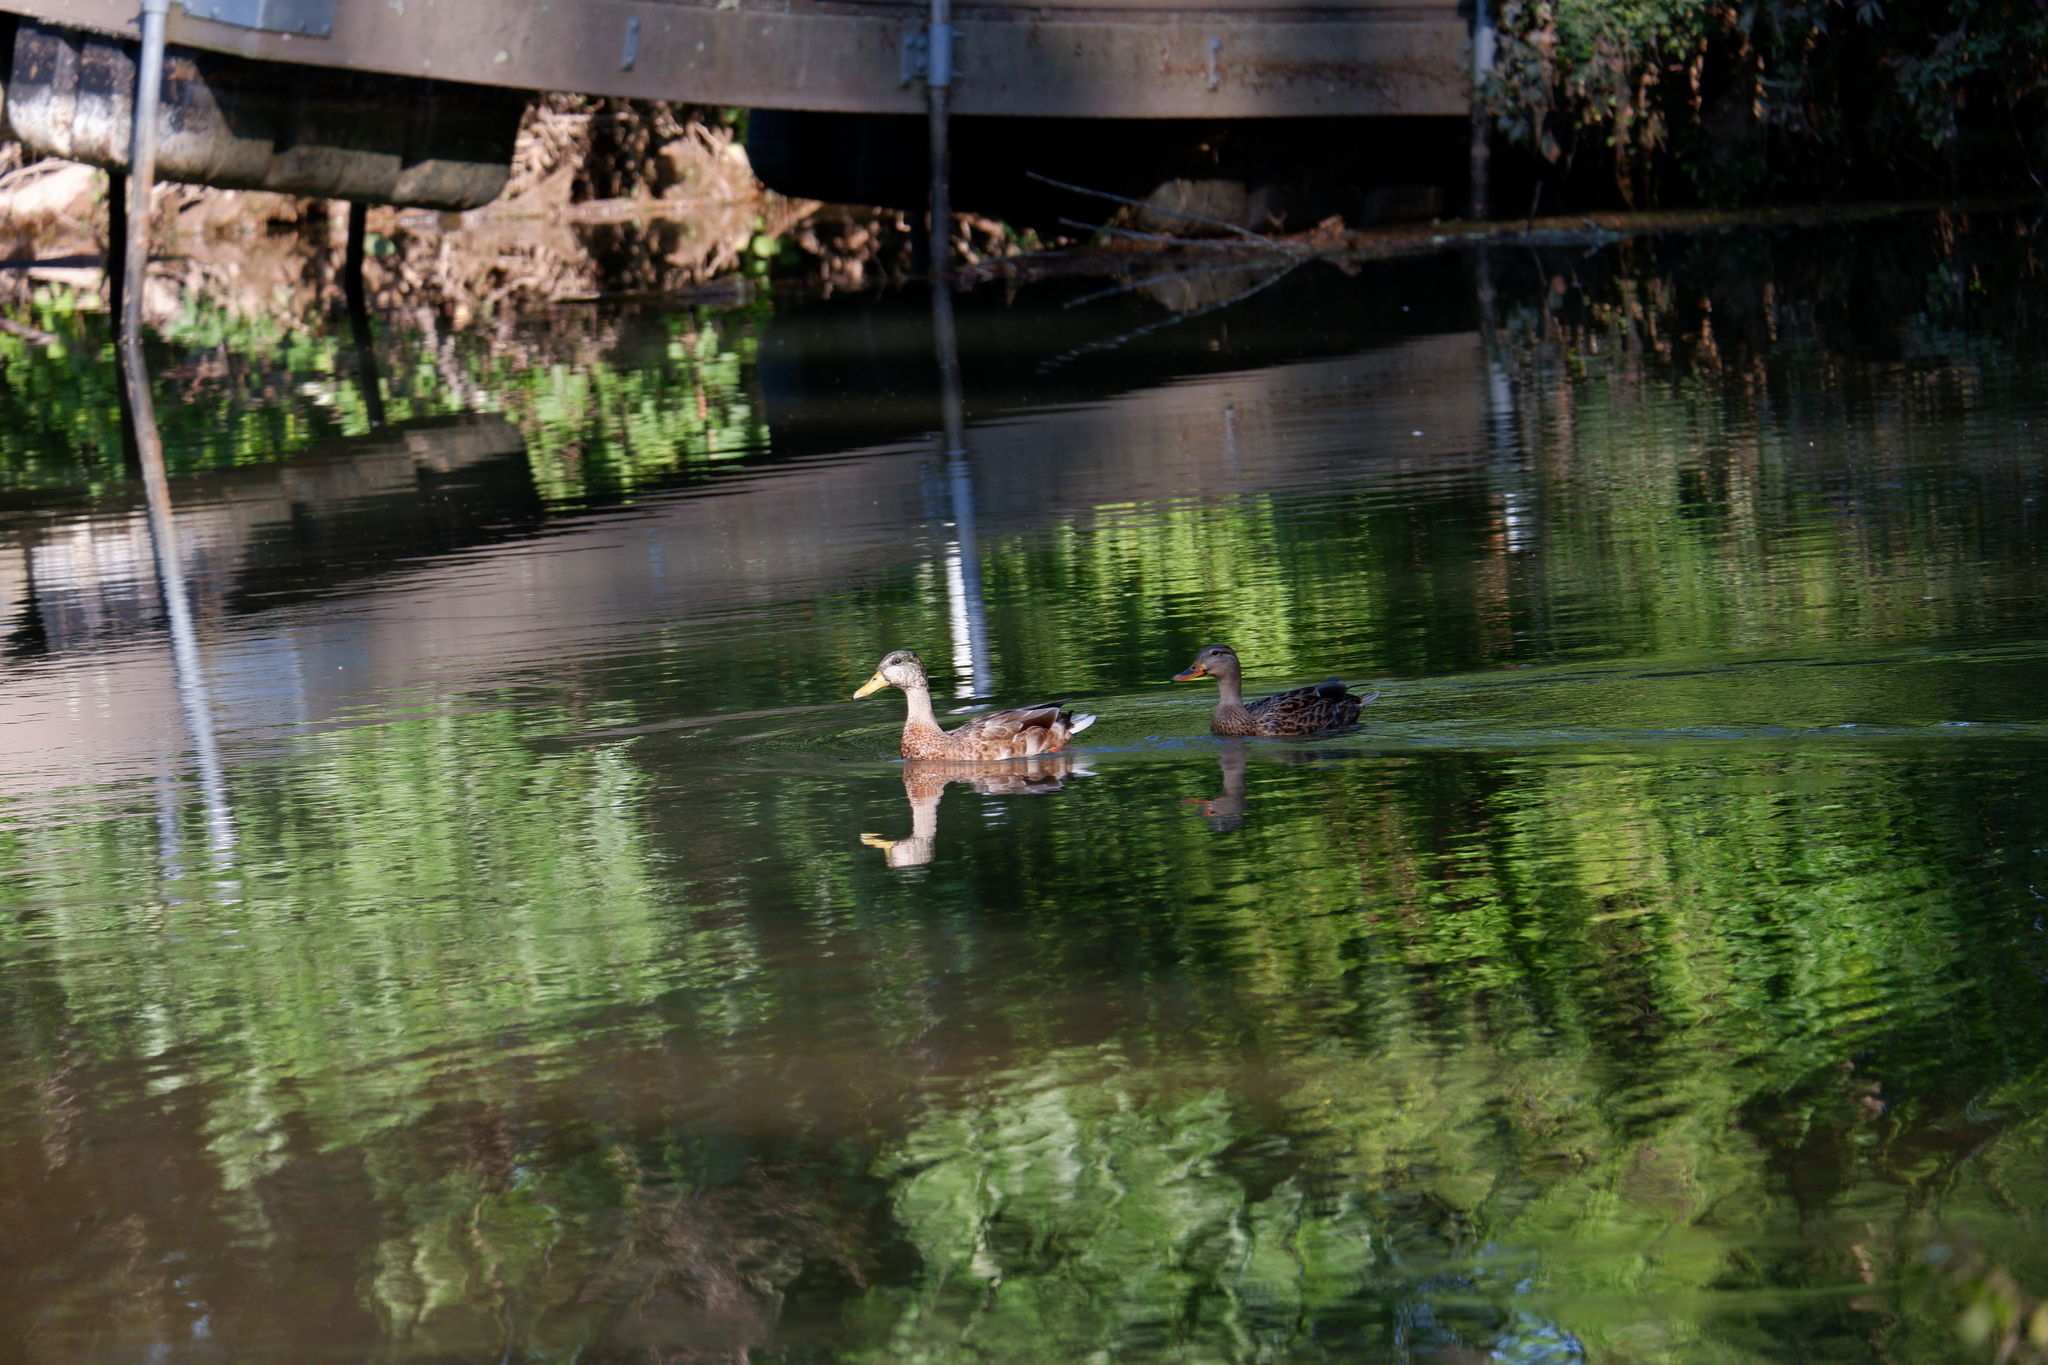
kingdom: Animalia
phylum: Chordata
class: Aves
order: Anseriformes
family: Anatidae
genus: Anas
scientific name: Anas platyrhynchos
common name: Mallard
